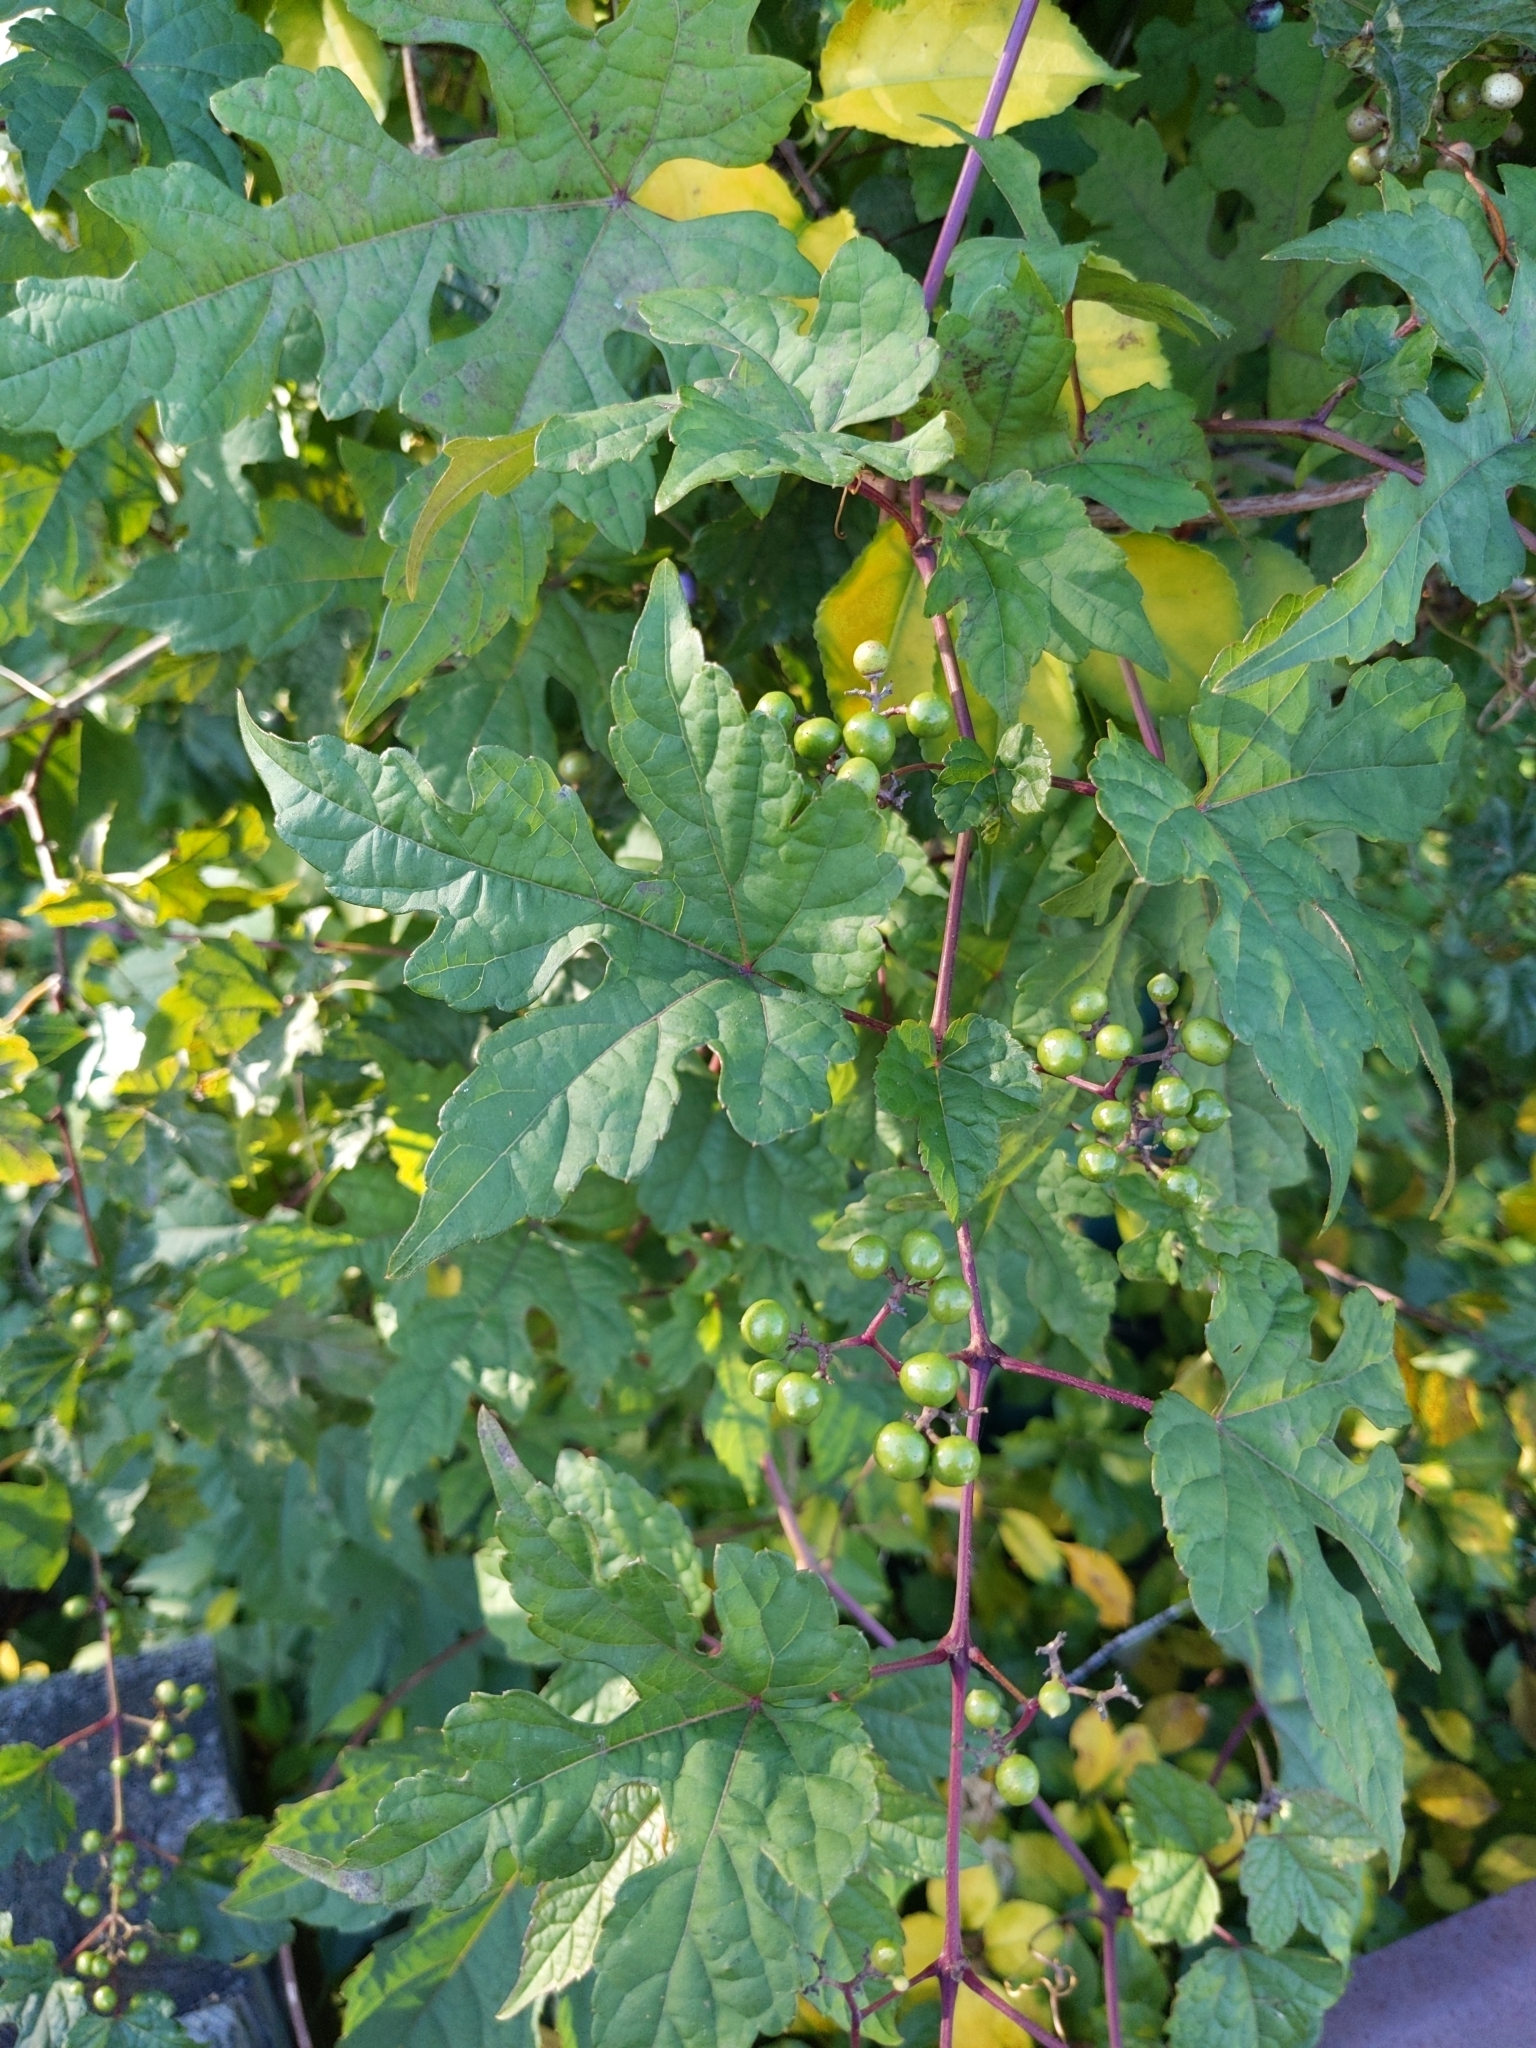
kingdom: Plantae
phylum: Tracheophyta
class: Magnoliopsida
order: Vitales
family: Vitaceae
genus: Ampelopsis
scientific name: Ampelopsis glandulosa
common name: Amur peppervine
